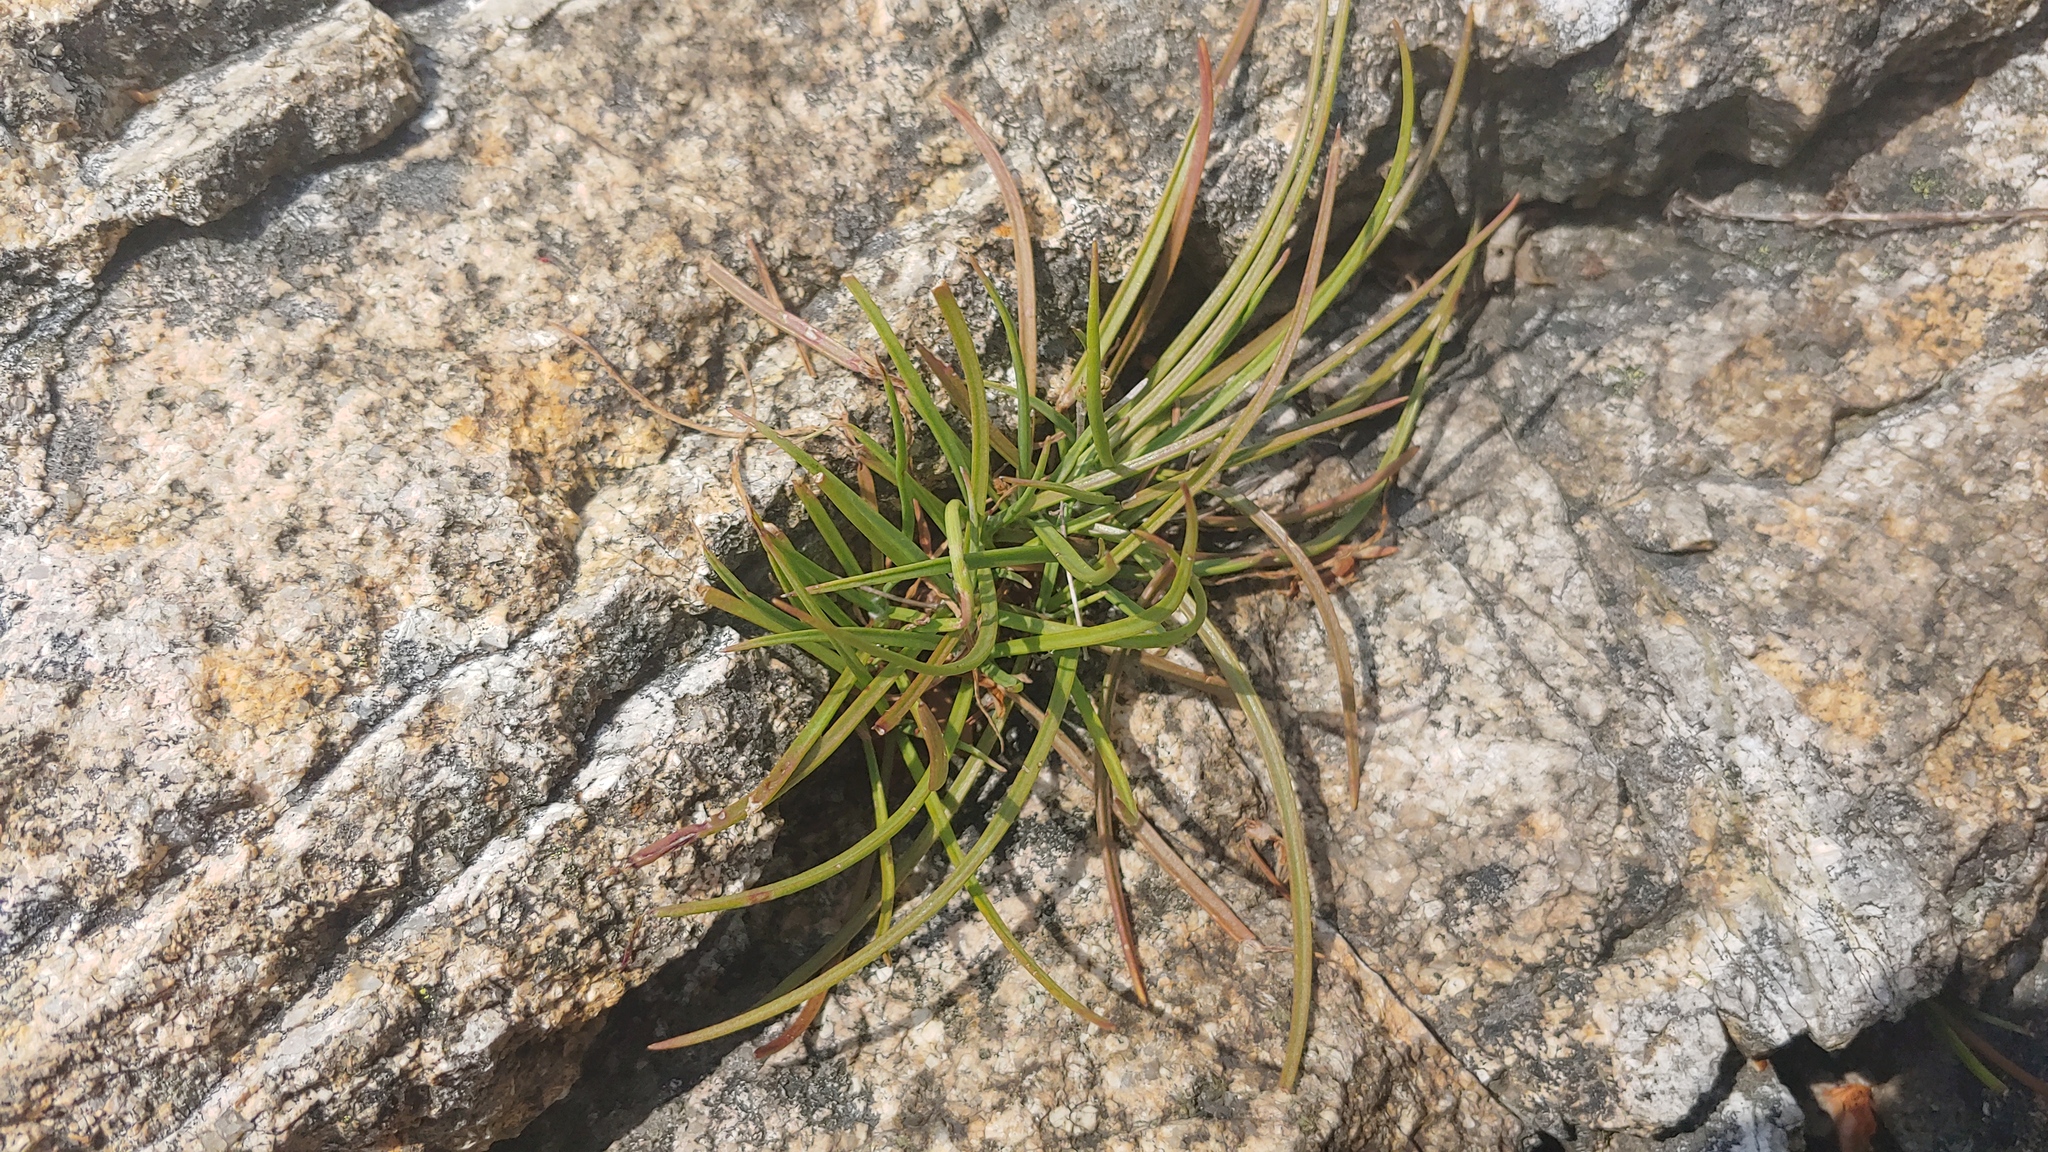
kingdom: Plantae
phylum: Tracheophyta
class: Magnoliopsida
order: Lamiales
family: Plantaginaceae
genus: Plantago
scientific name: Plantago maritima
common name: Sea plantain
